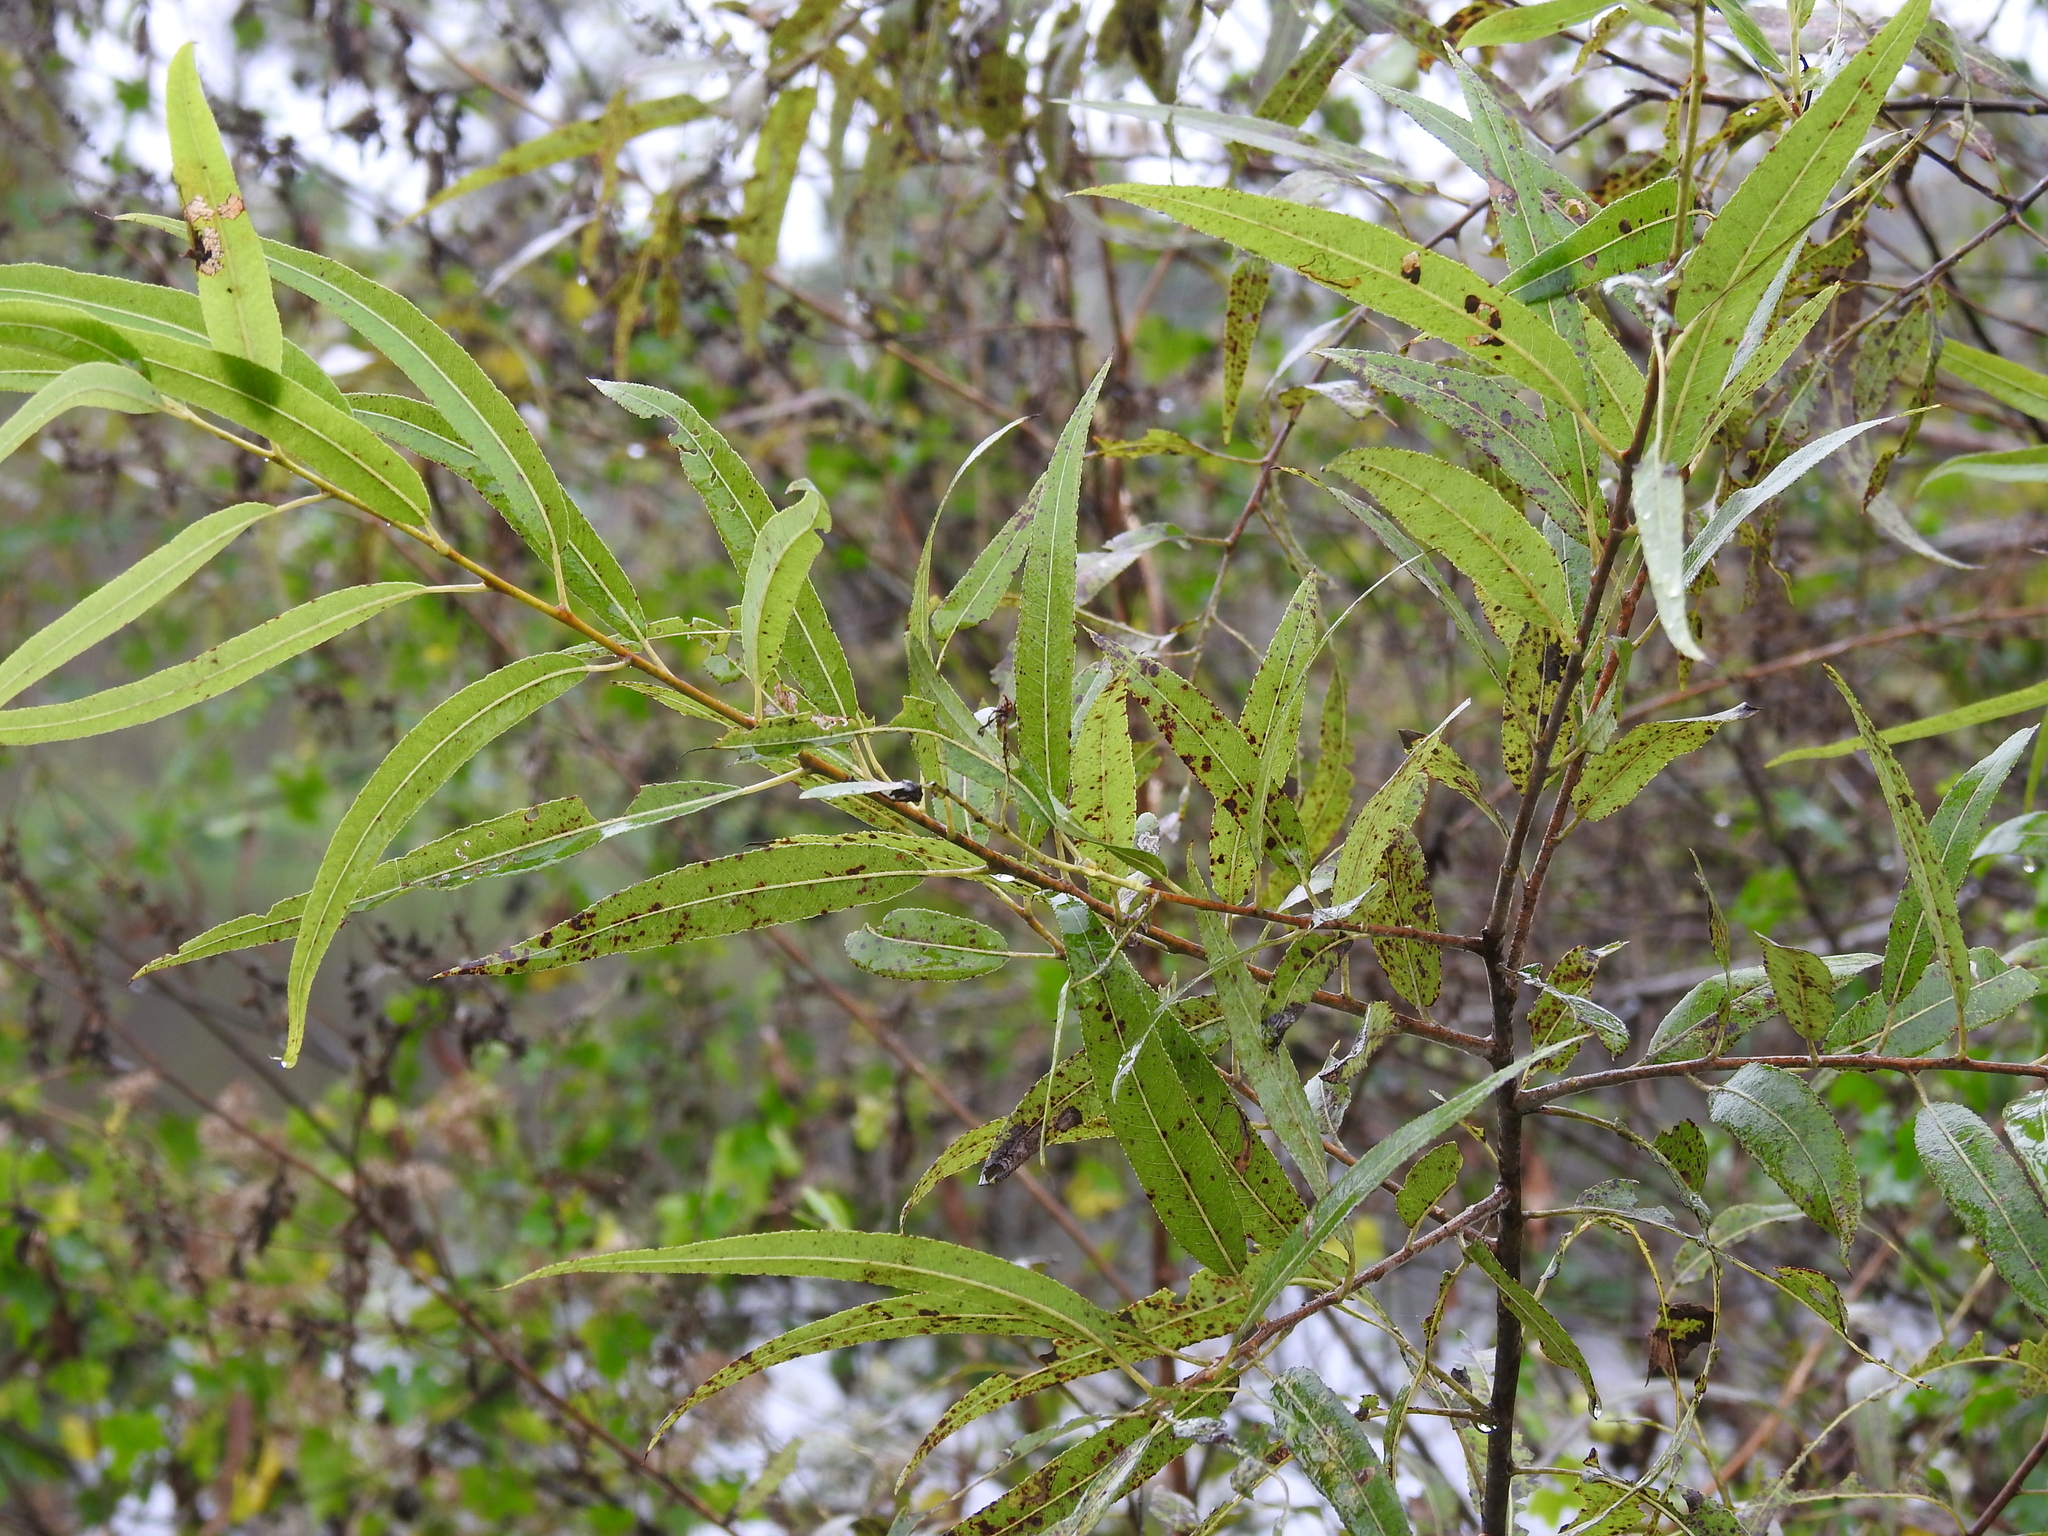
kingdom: Plantae
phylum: Tracheophyta
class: Magnoliopsida
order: Malpighiales
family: Salicaceae
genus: Salix
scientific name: Salix caroliniana
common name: Carolina willow
